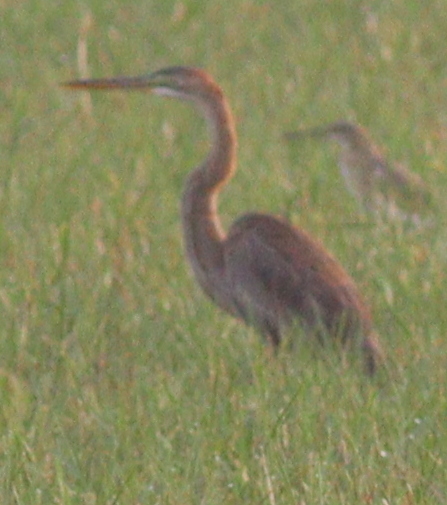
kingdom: Animalia
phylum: Chordata
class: Aves
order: Pelecaniformes
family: Ardeidae
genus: Ardea
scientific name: Ardea purpurea
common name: Purple heron
